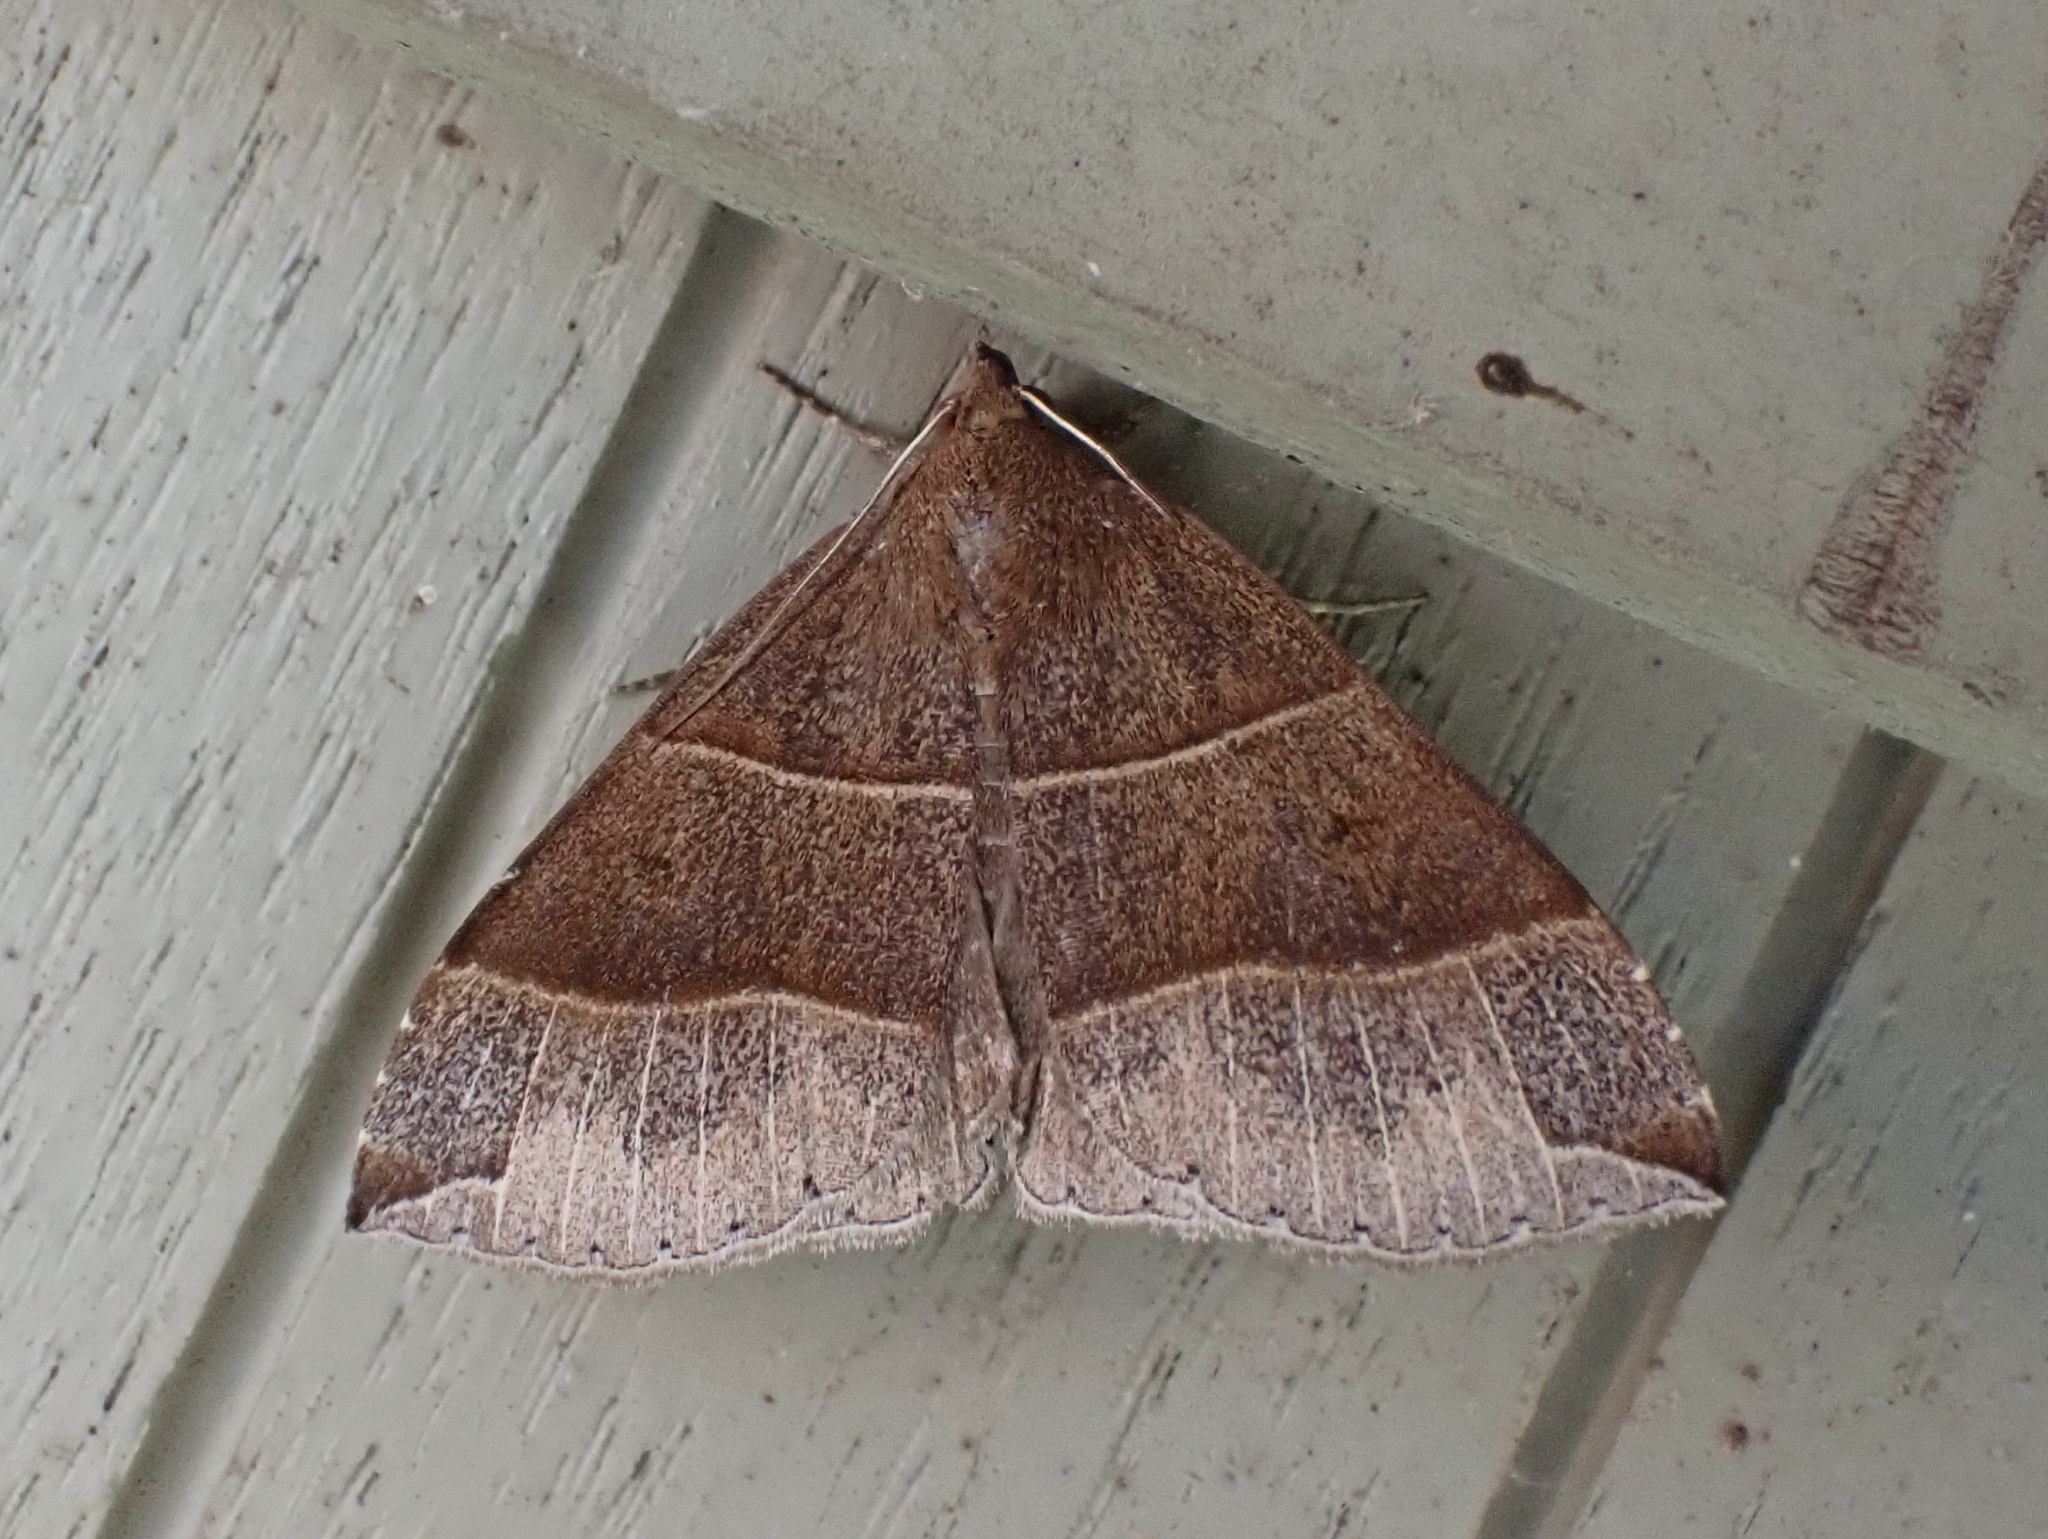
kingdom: Animalia
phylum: Arthropoda
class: Insecta
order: Lepidoptera
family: Erebidae
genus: Parallelia
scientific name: Parallelia bistriaris
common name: Maple looper moth
